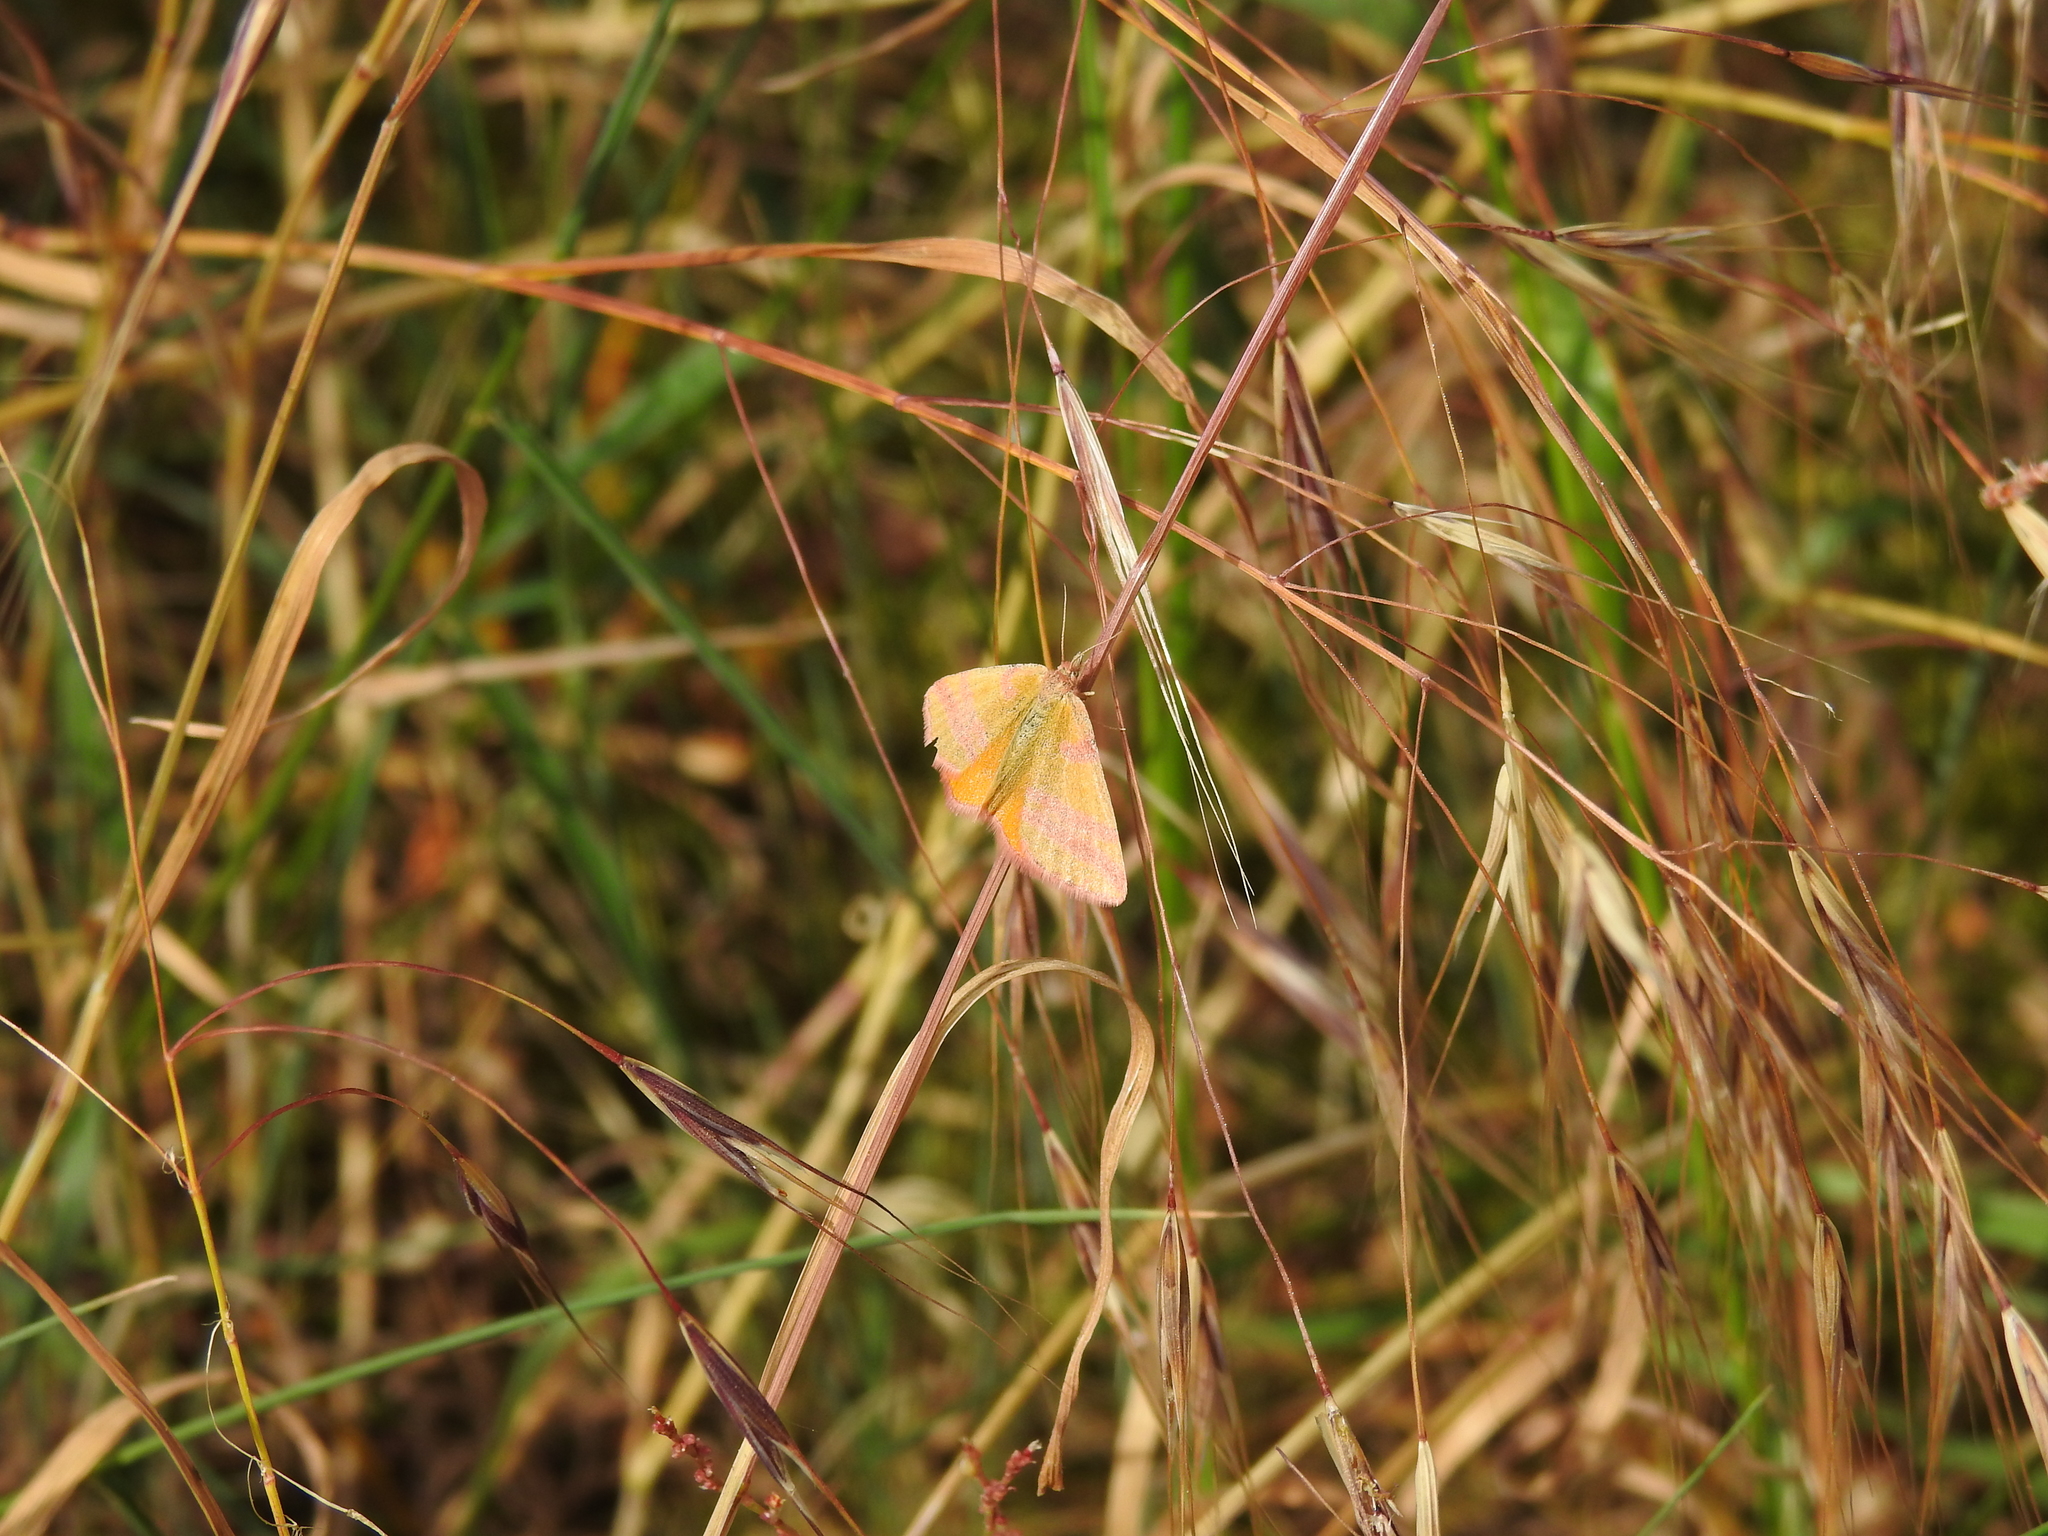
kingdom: Animalia
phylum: Arthropoda
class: Insecta
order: Lepidoptera
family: Geometridae
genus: Lythria
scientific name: Lythria cruentaria
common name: Purple-barred yellow
